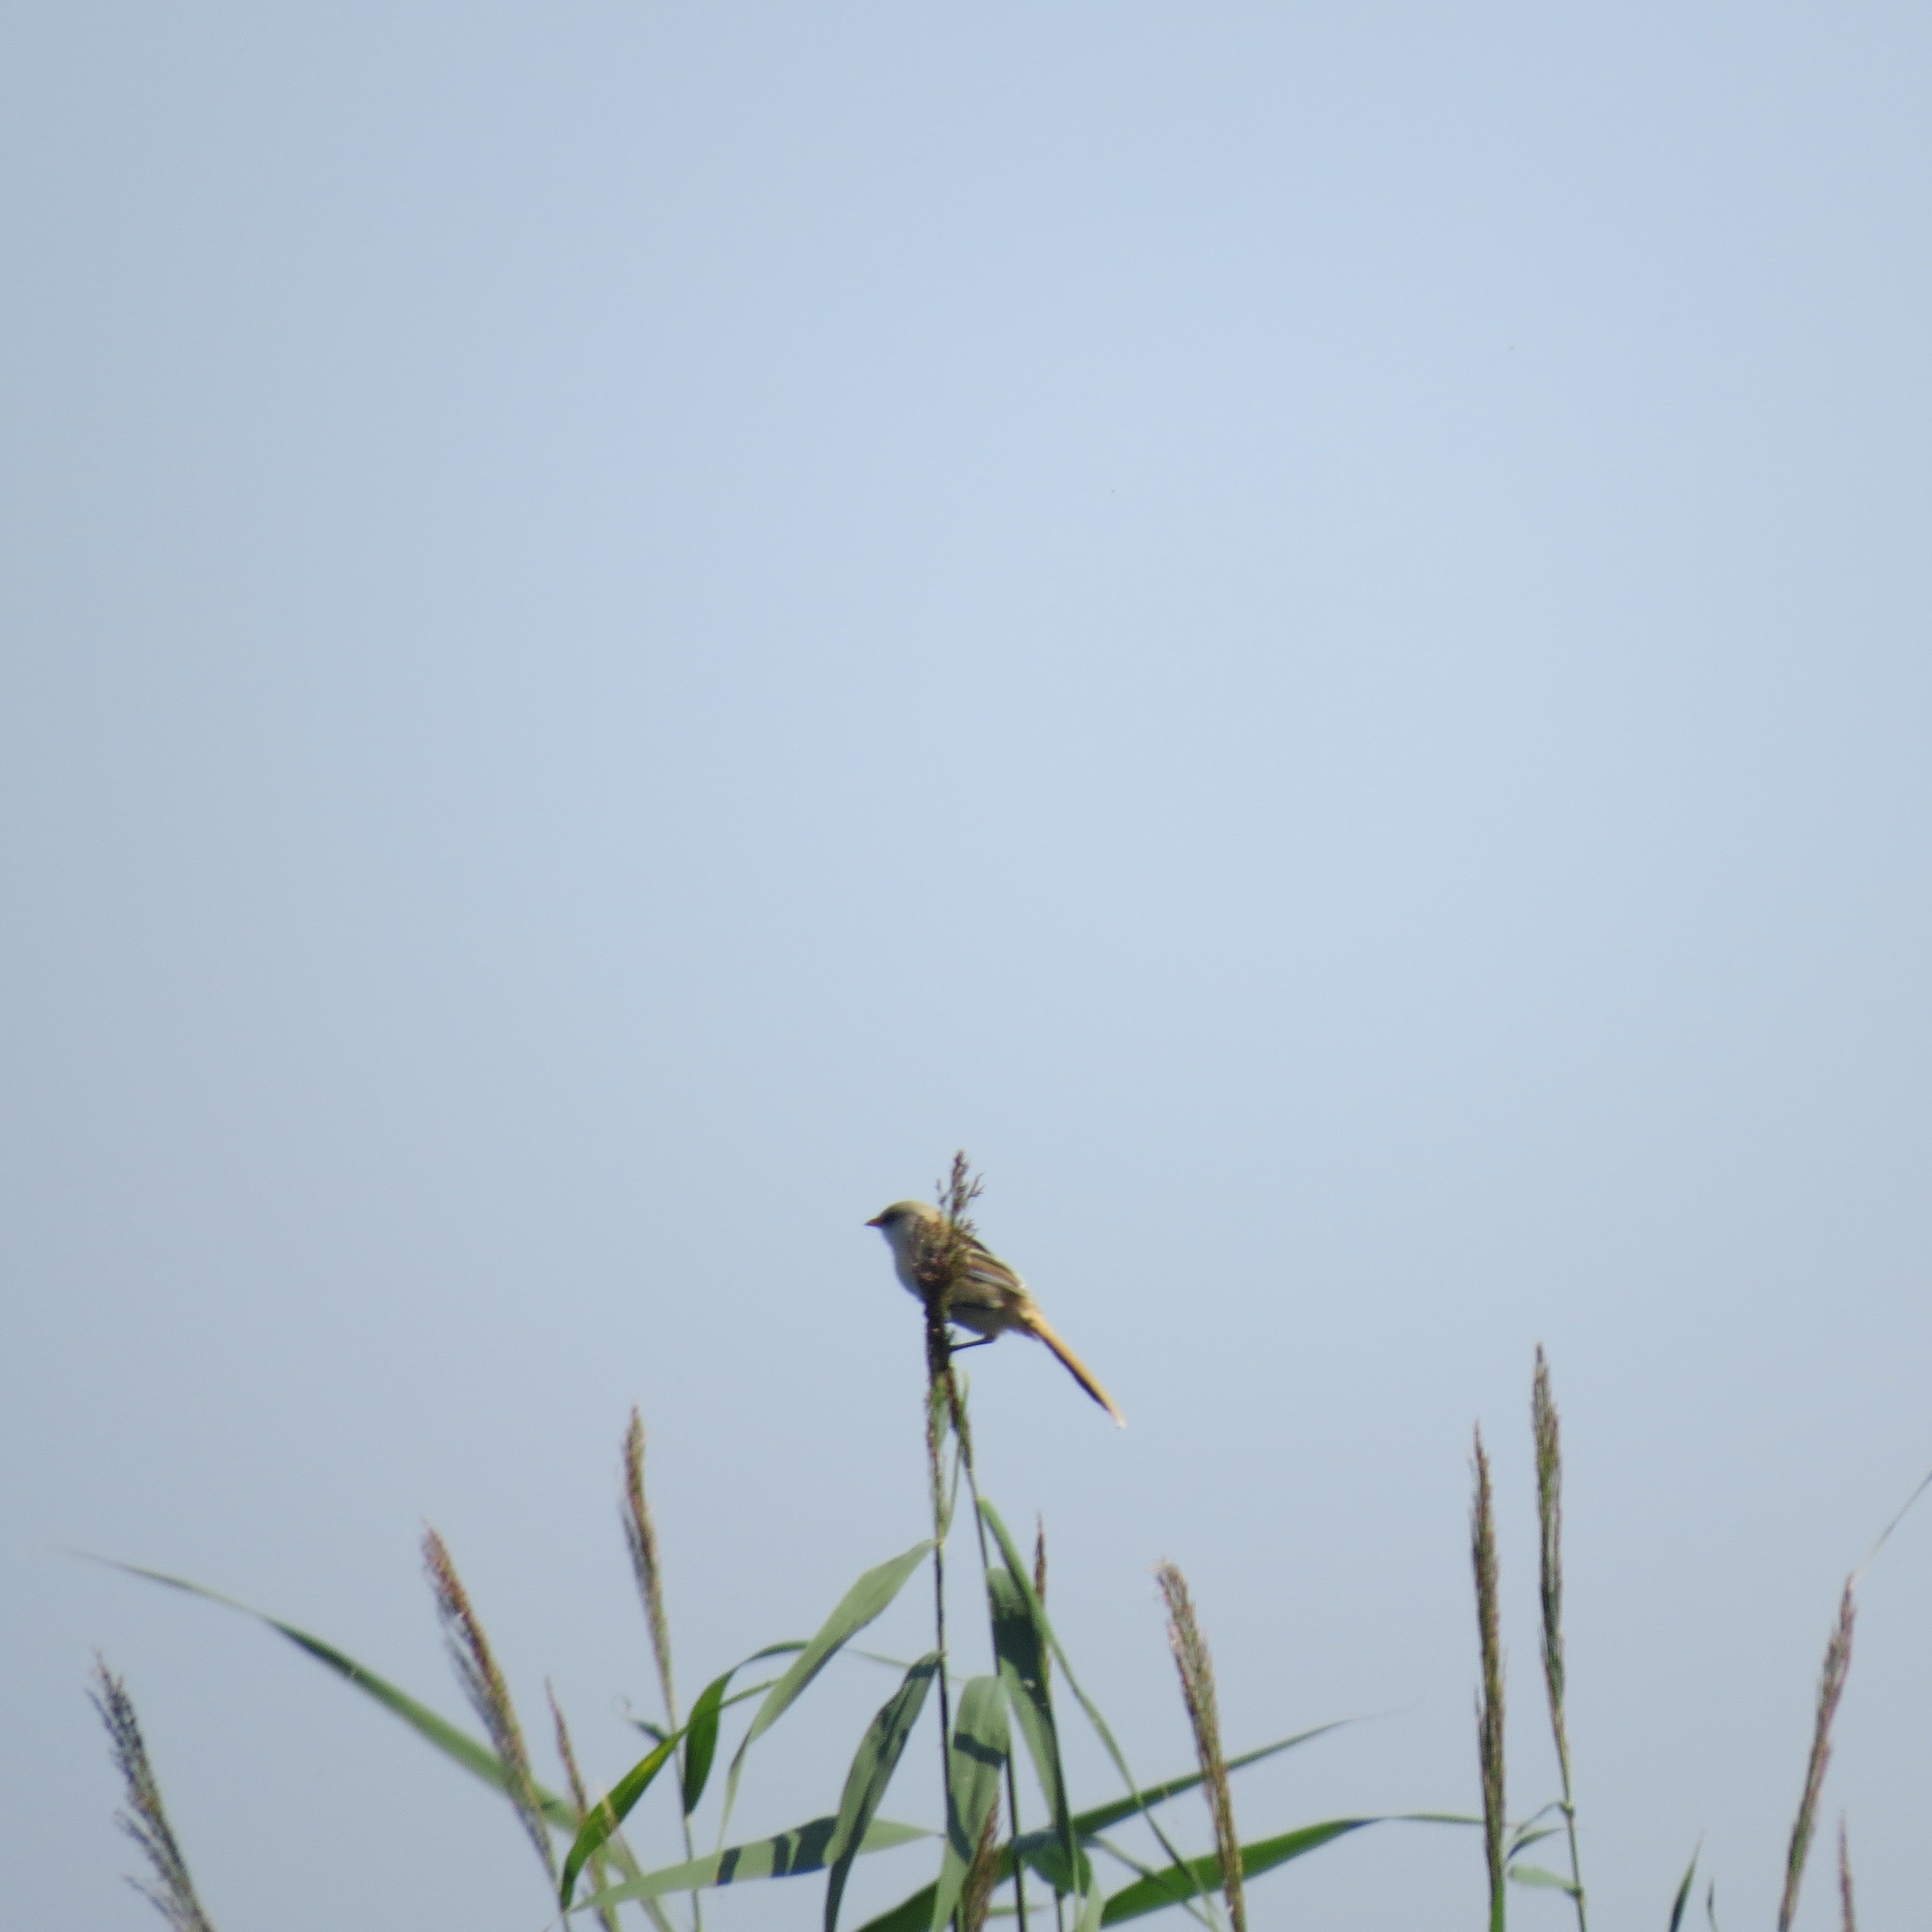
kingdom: Animalia
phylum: Chordata
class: Aves
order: Passeriformes
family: Panuridae
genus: Panurus
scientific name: Panurus biarmicus
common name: Bearded reedling
